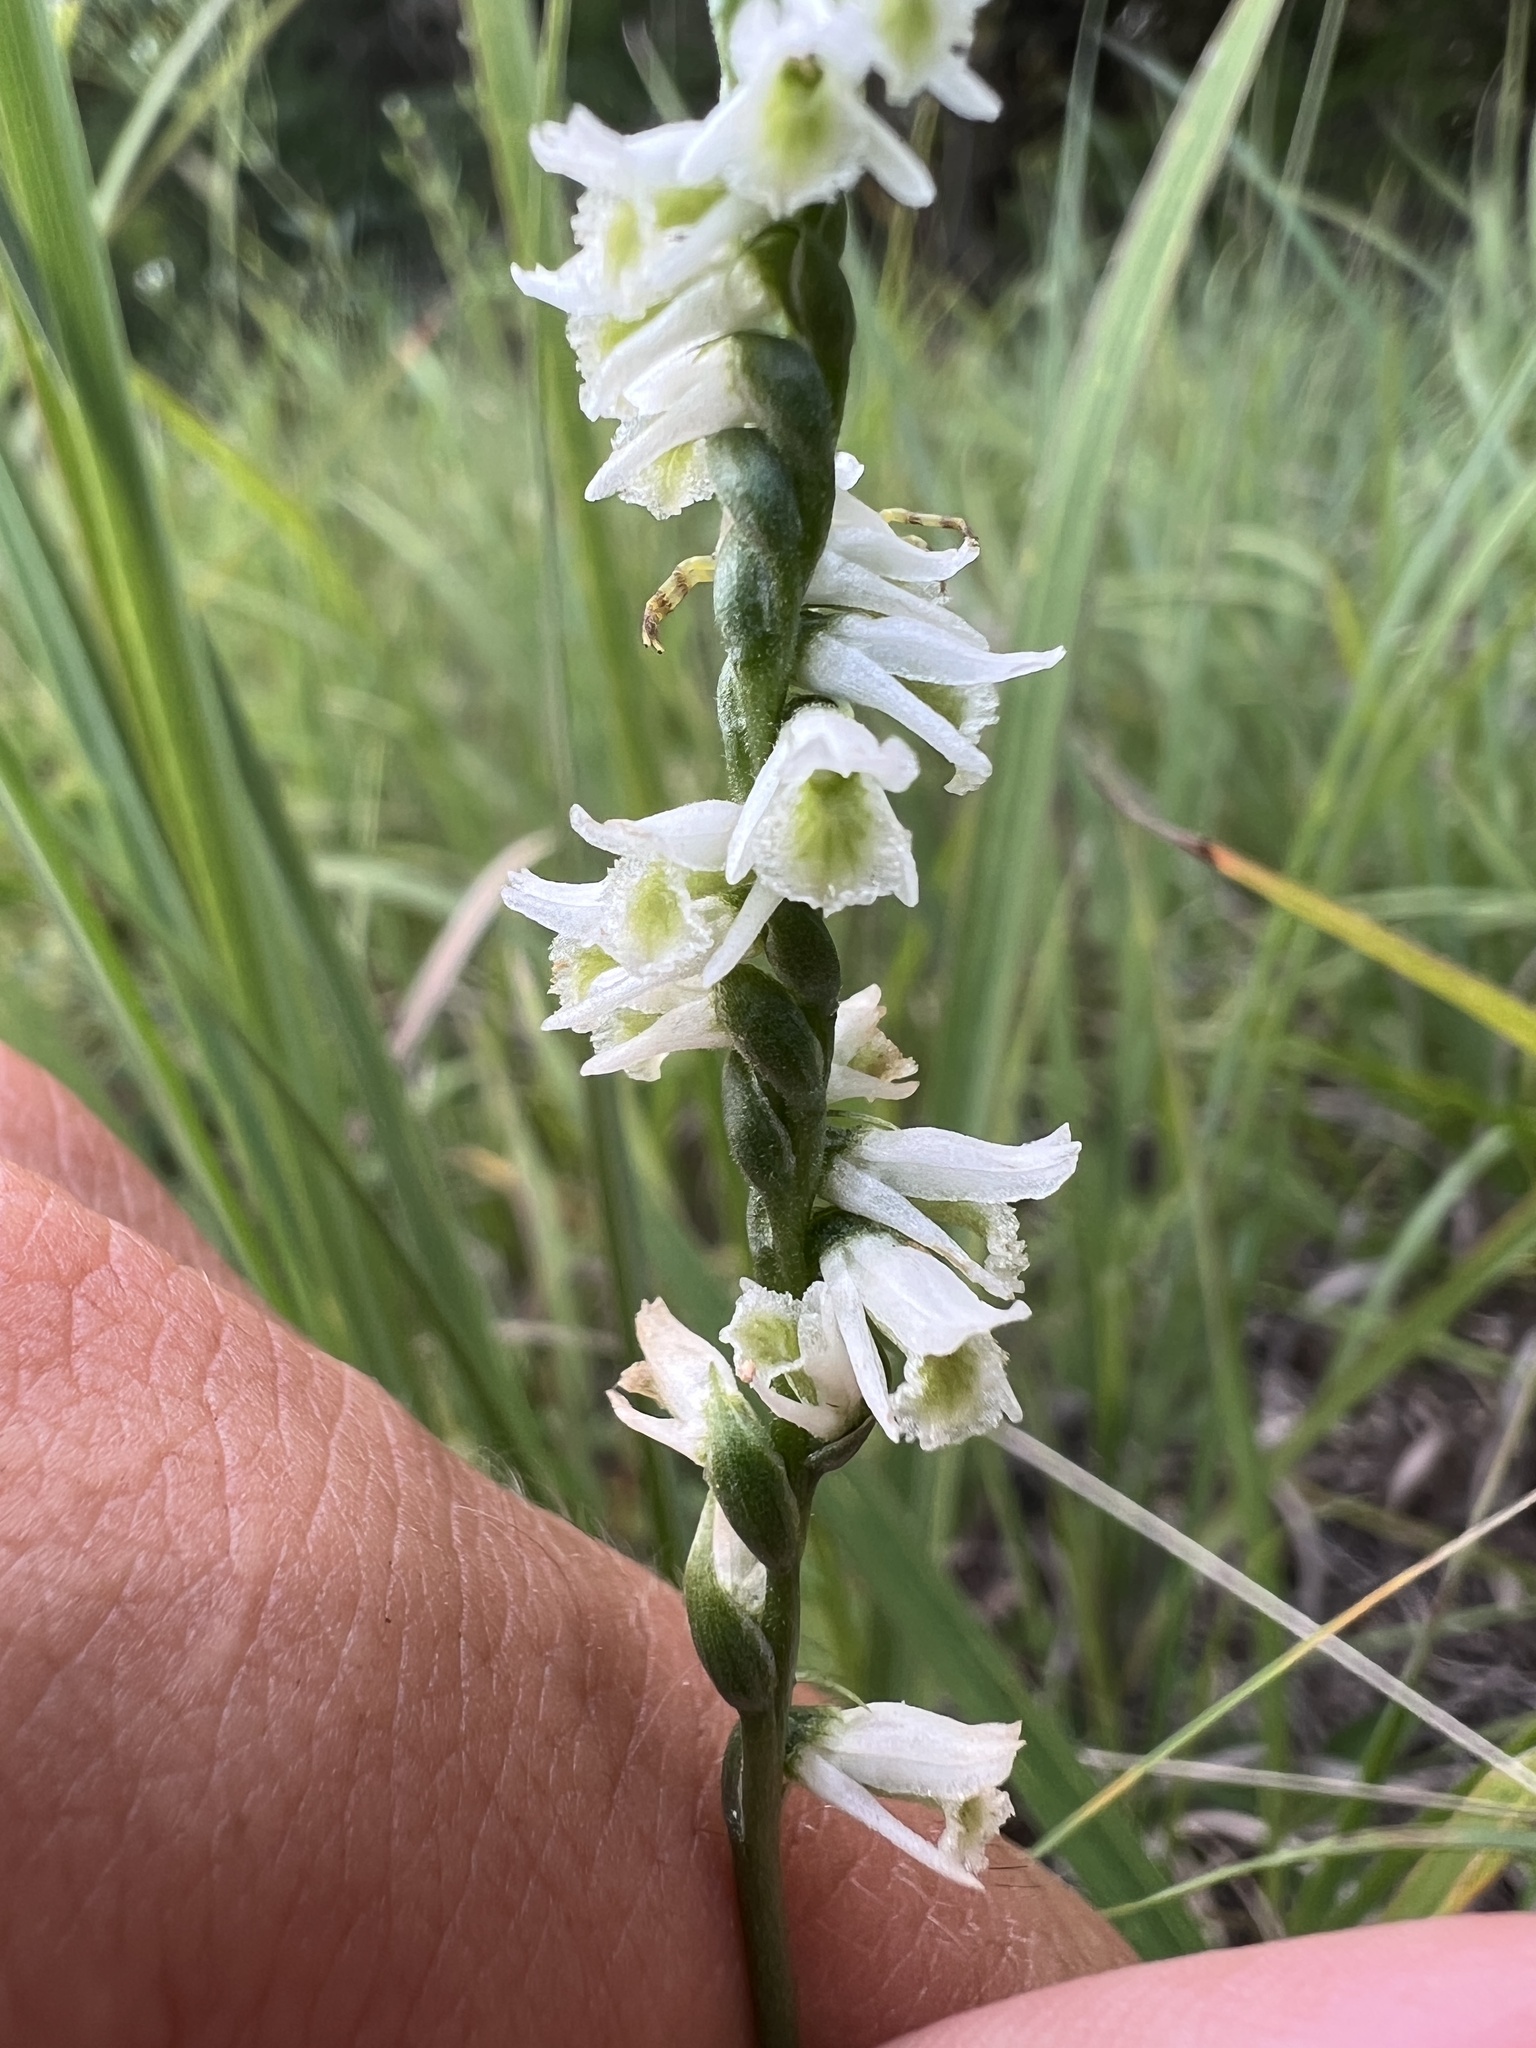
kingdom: Plantae
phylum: Tracheophyta
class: Liliopsida
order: Asparagales
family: Orchidaceae
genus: Spiranthes
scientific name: Spiranthes lacera
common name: Northern slender ladies'-tresses
